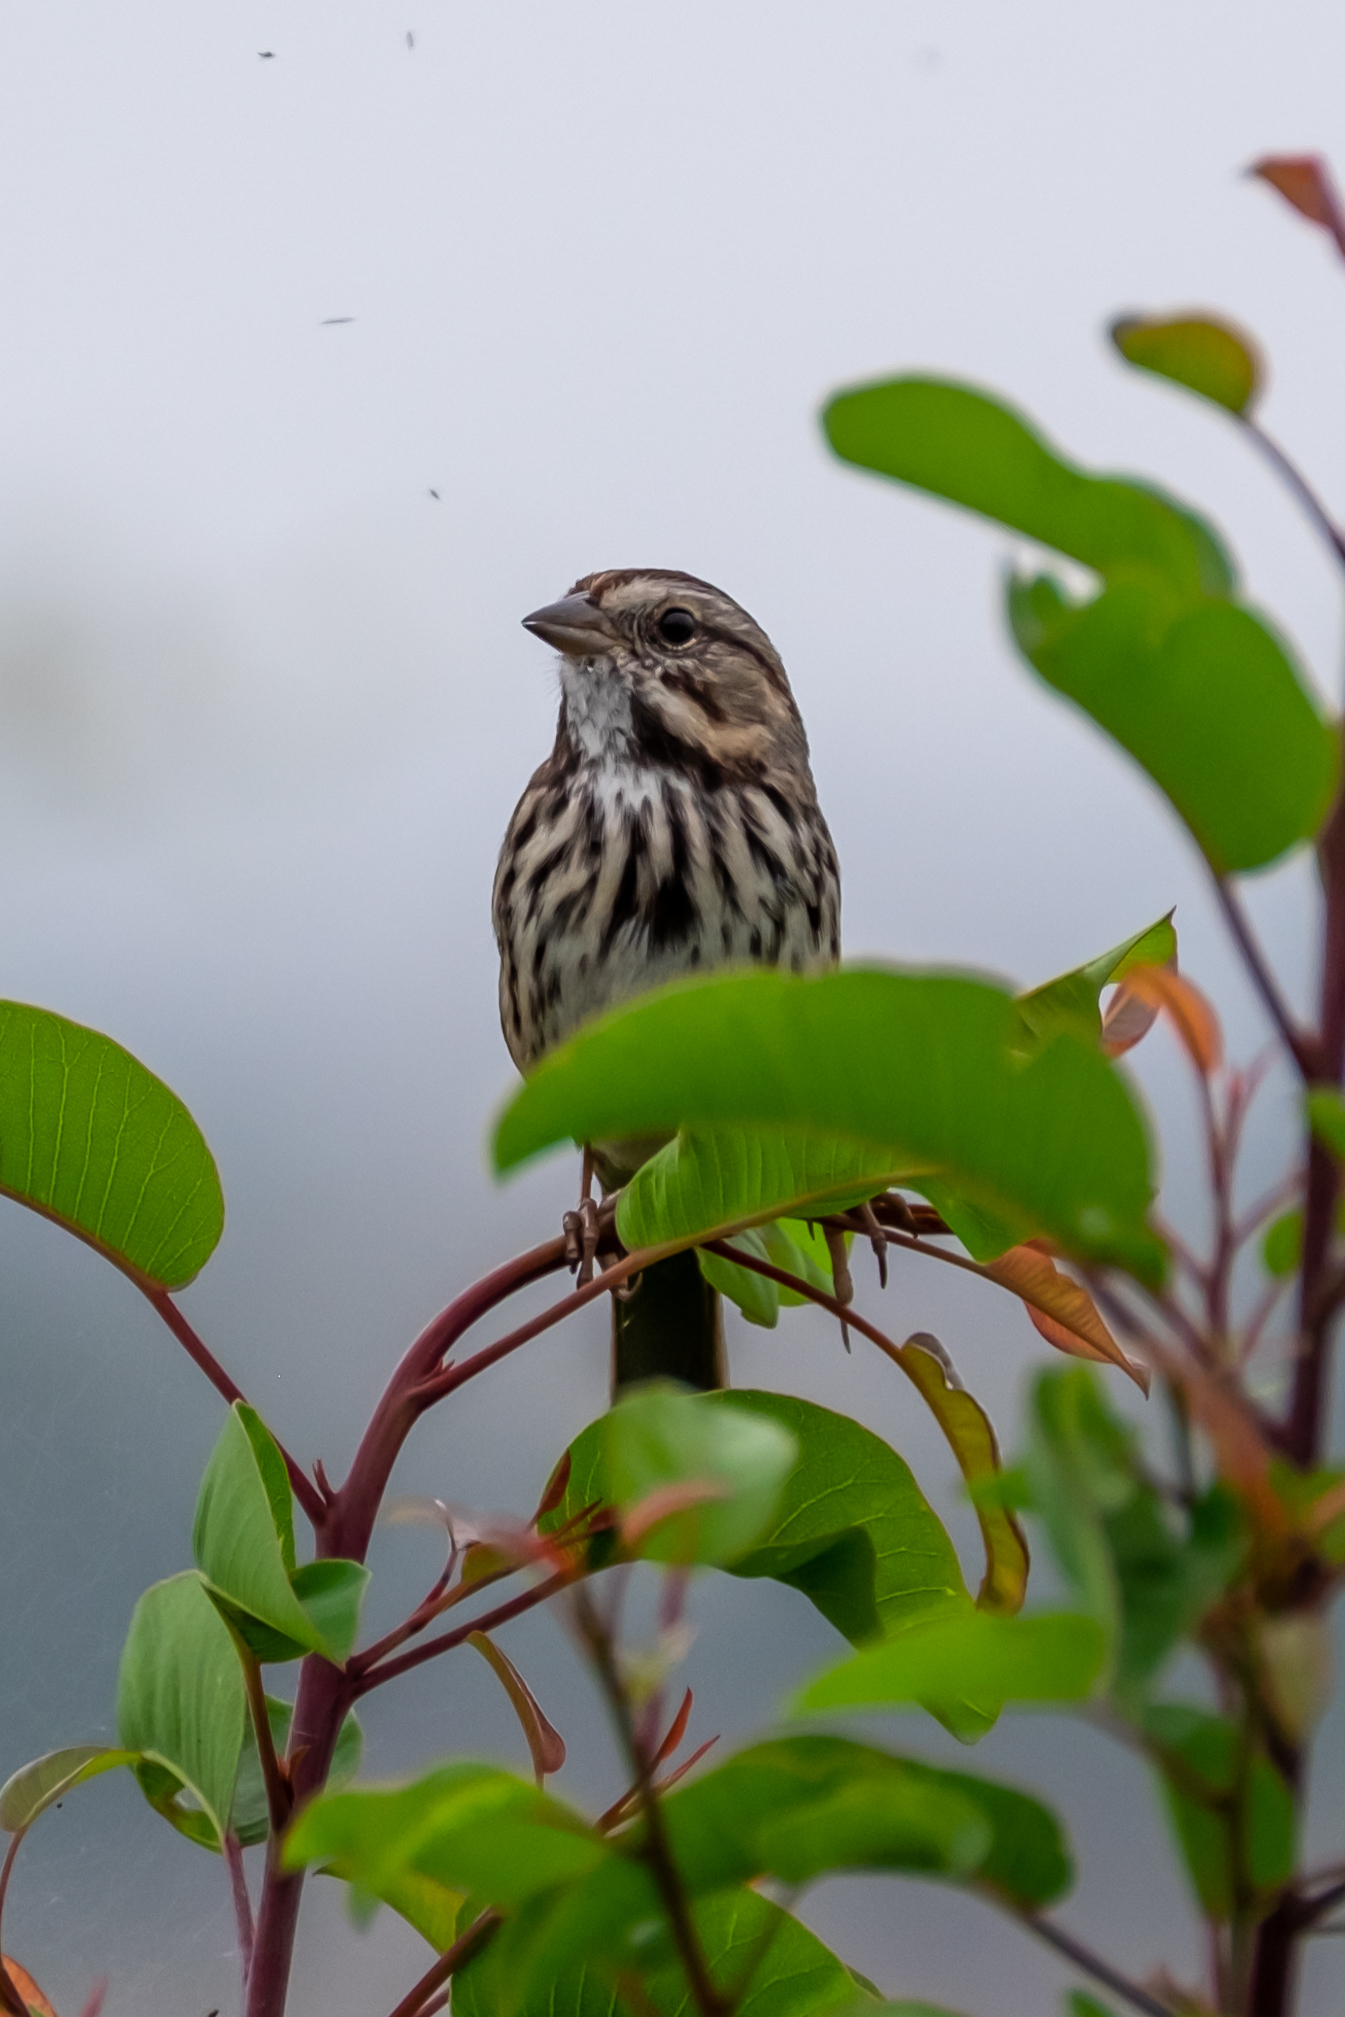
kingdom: Animalia
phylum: Chordata
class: Aves
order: Passeriformes
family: Passerellidae
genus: Melospiza
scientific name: Melospiza melodia
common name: Song sparrow
